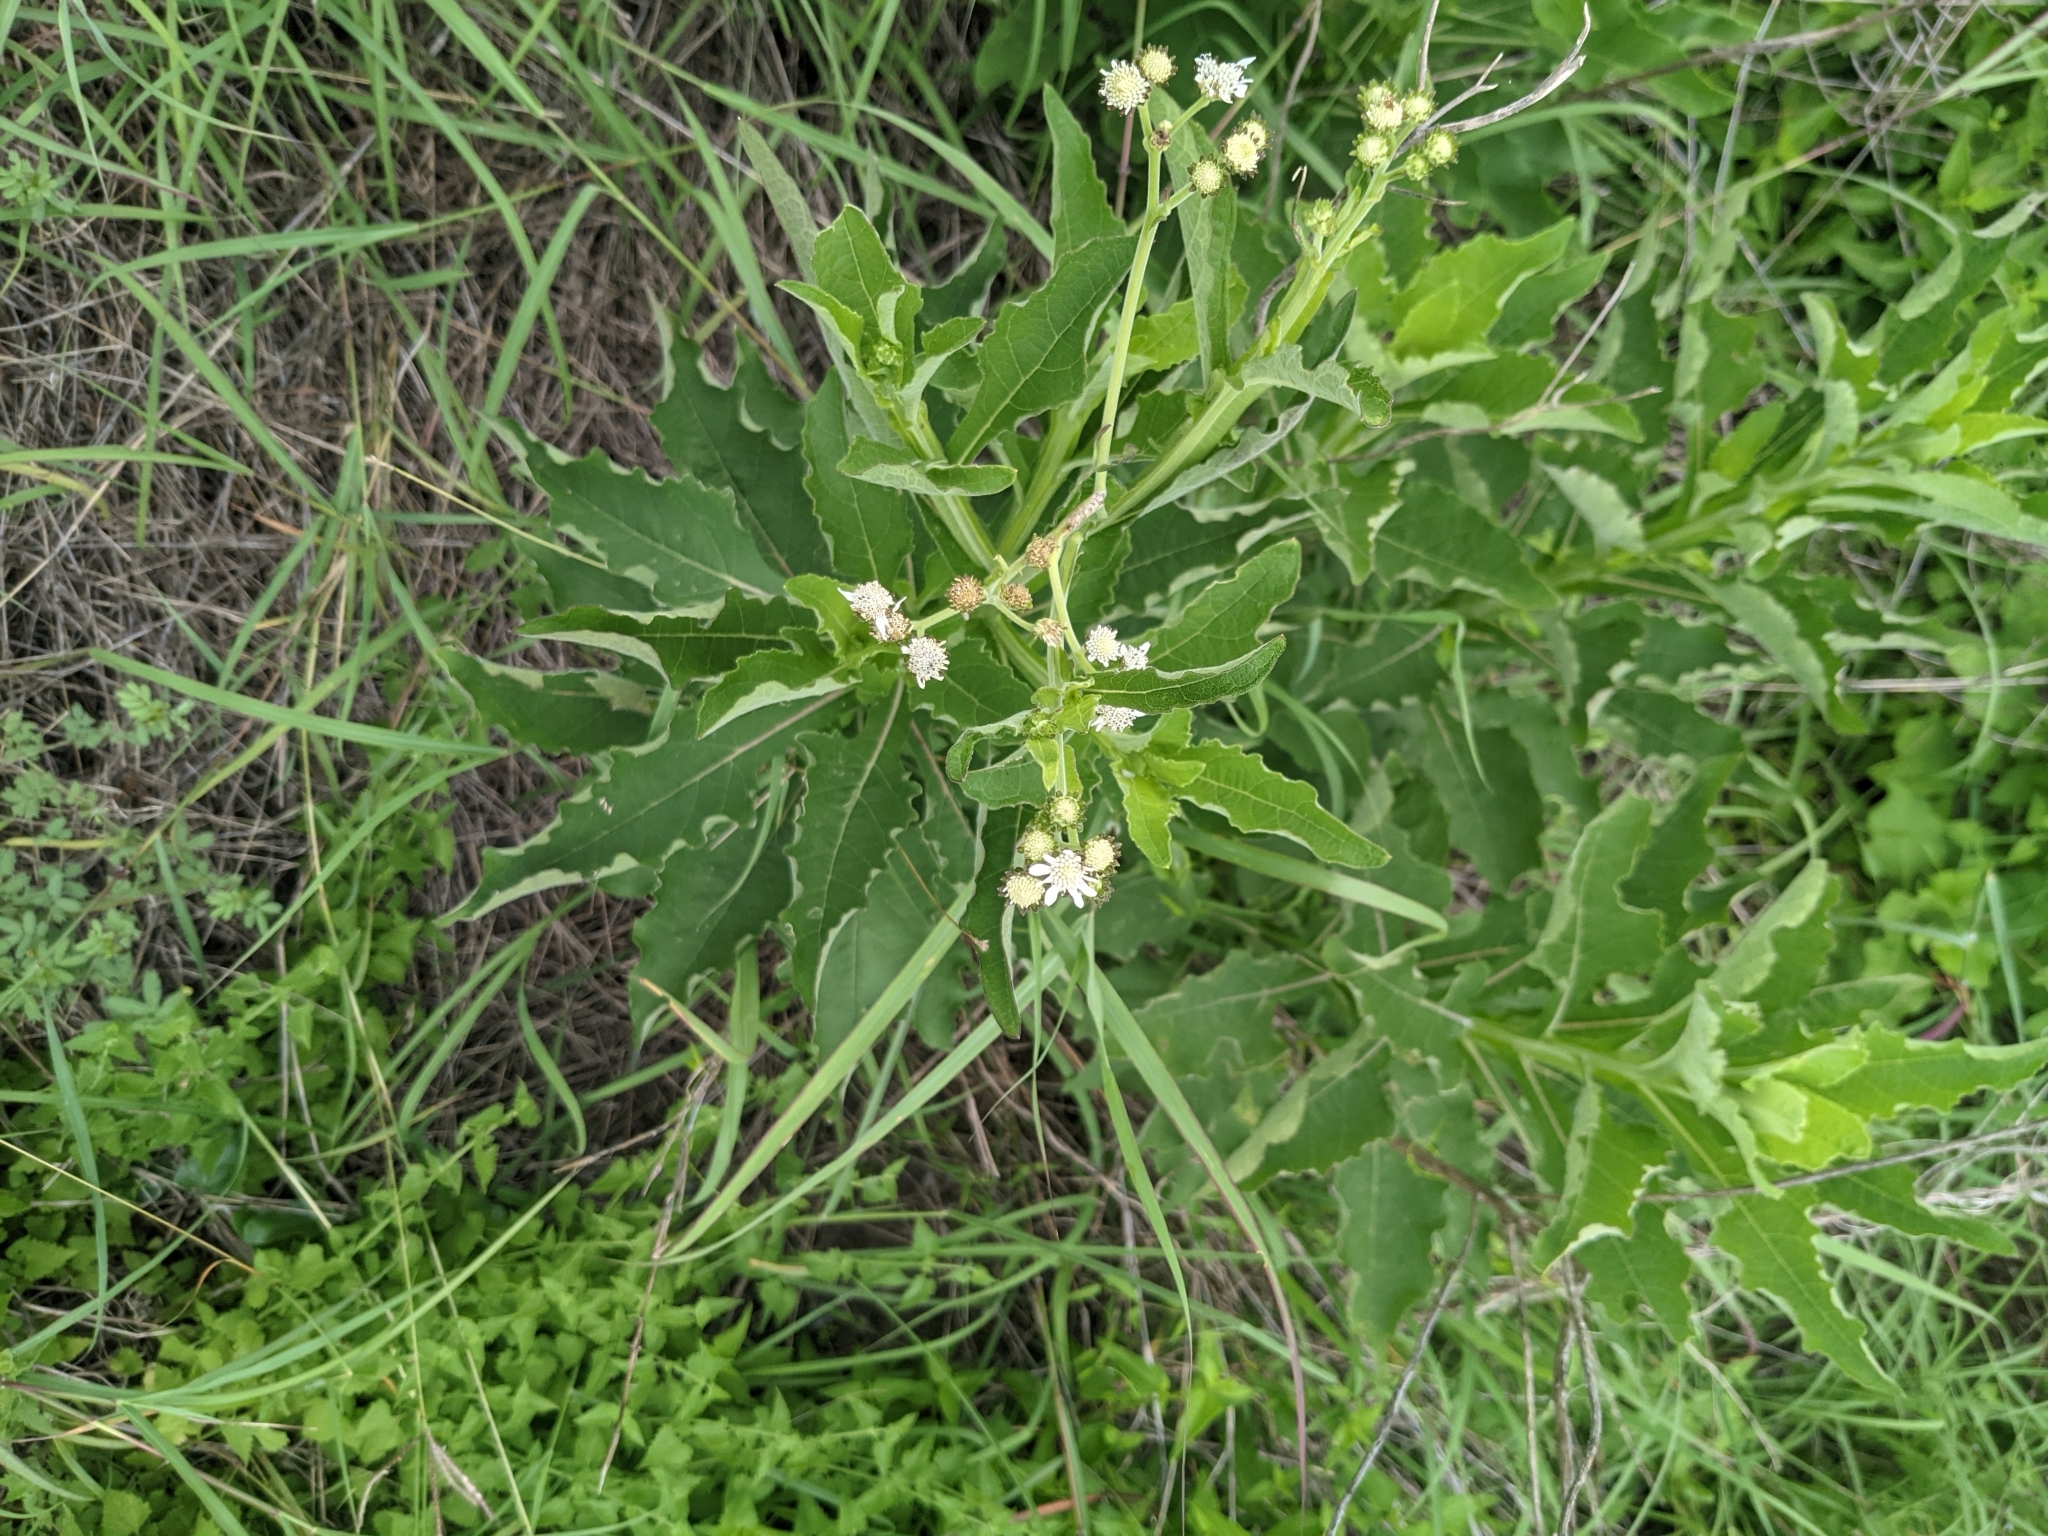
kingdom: Plantae
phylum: Tracheophyta
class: Magnoliopsida
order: Asterales
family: Asteraceae
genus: Verbesina
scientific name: Verbesina microptera
